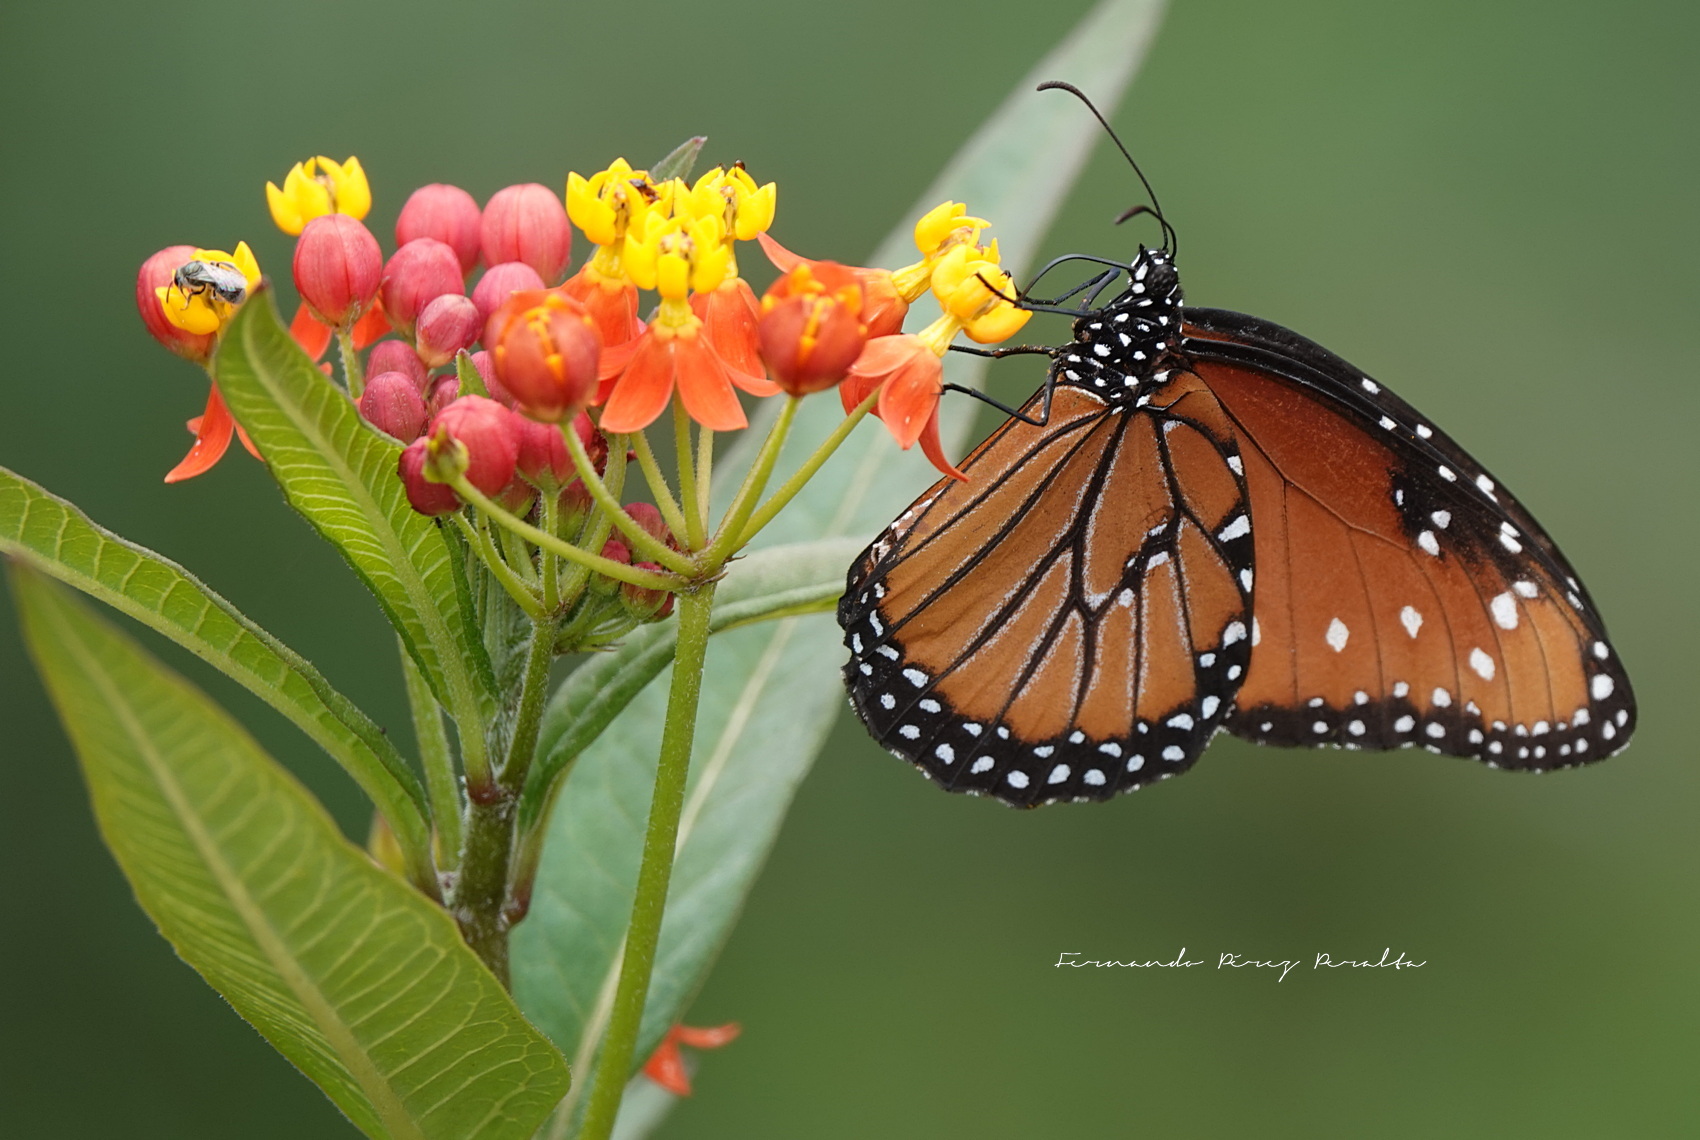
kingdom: Animalia
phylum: Arthropoda
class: Insecta
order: Lepidoptera
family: Nymphalidae
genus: Danaus
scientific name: Danaus gilippus
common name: Queen
